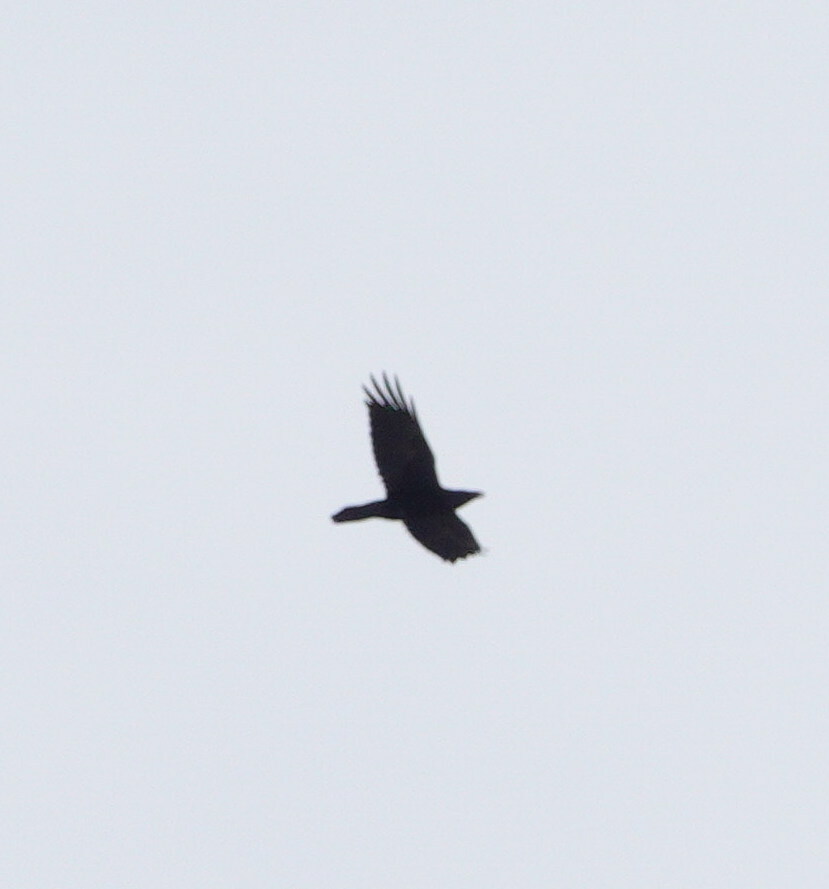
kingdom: Animalia
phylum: Chordata
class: Aves
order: Passeriformes
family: Corvidae
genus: Corvus
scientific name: Corvus corax
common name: Common raven
